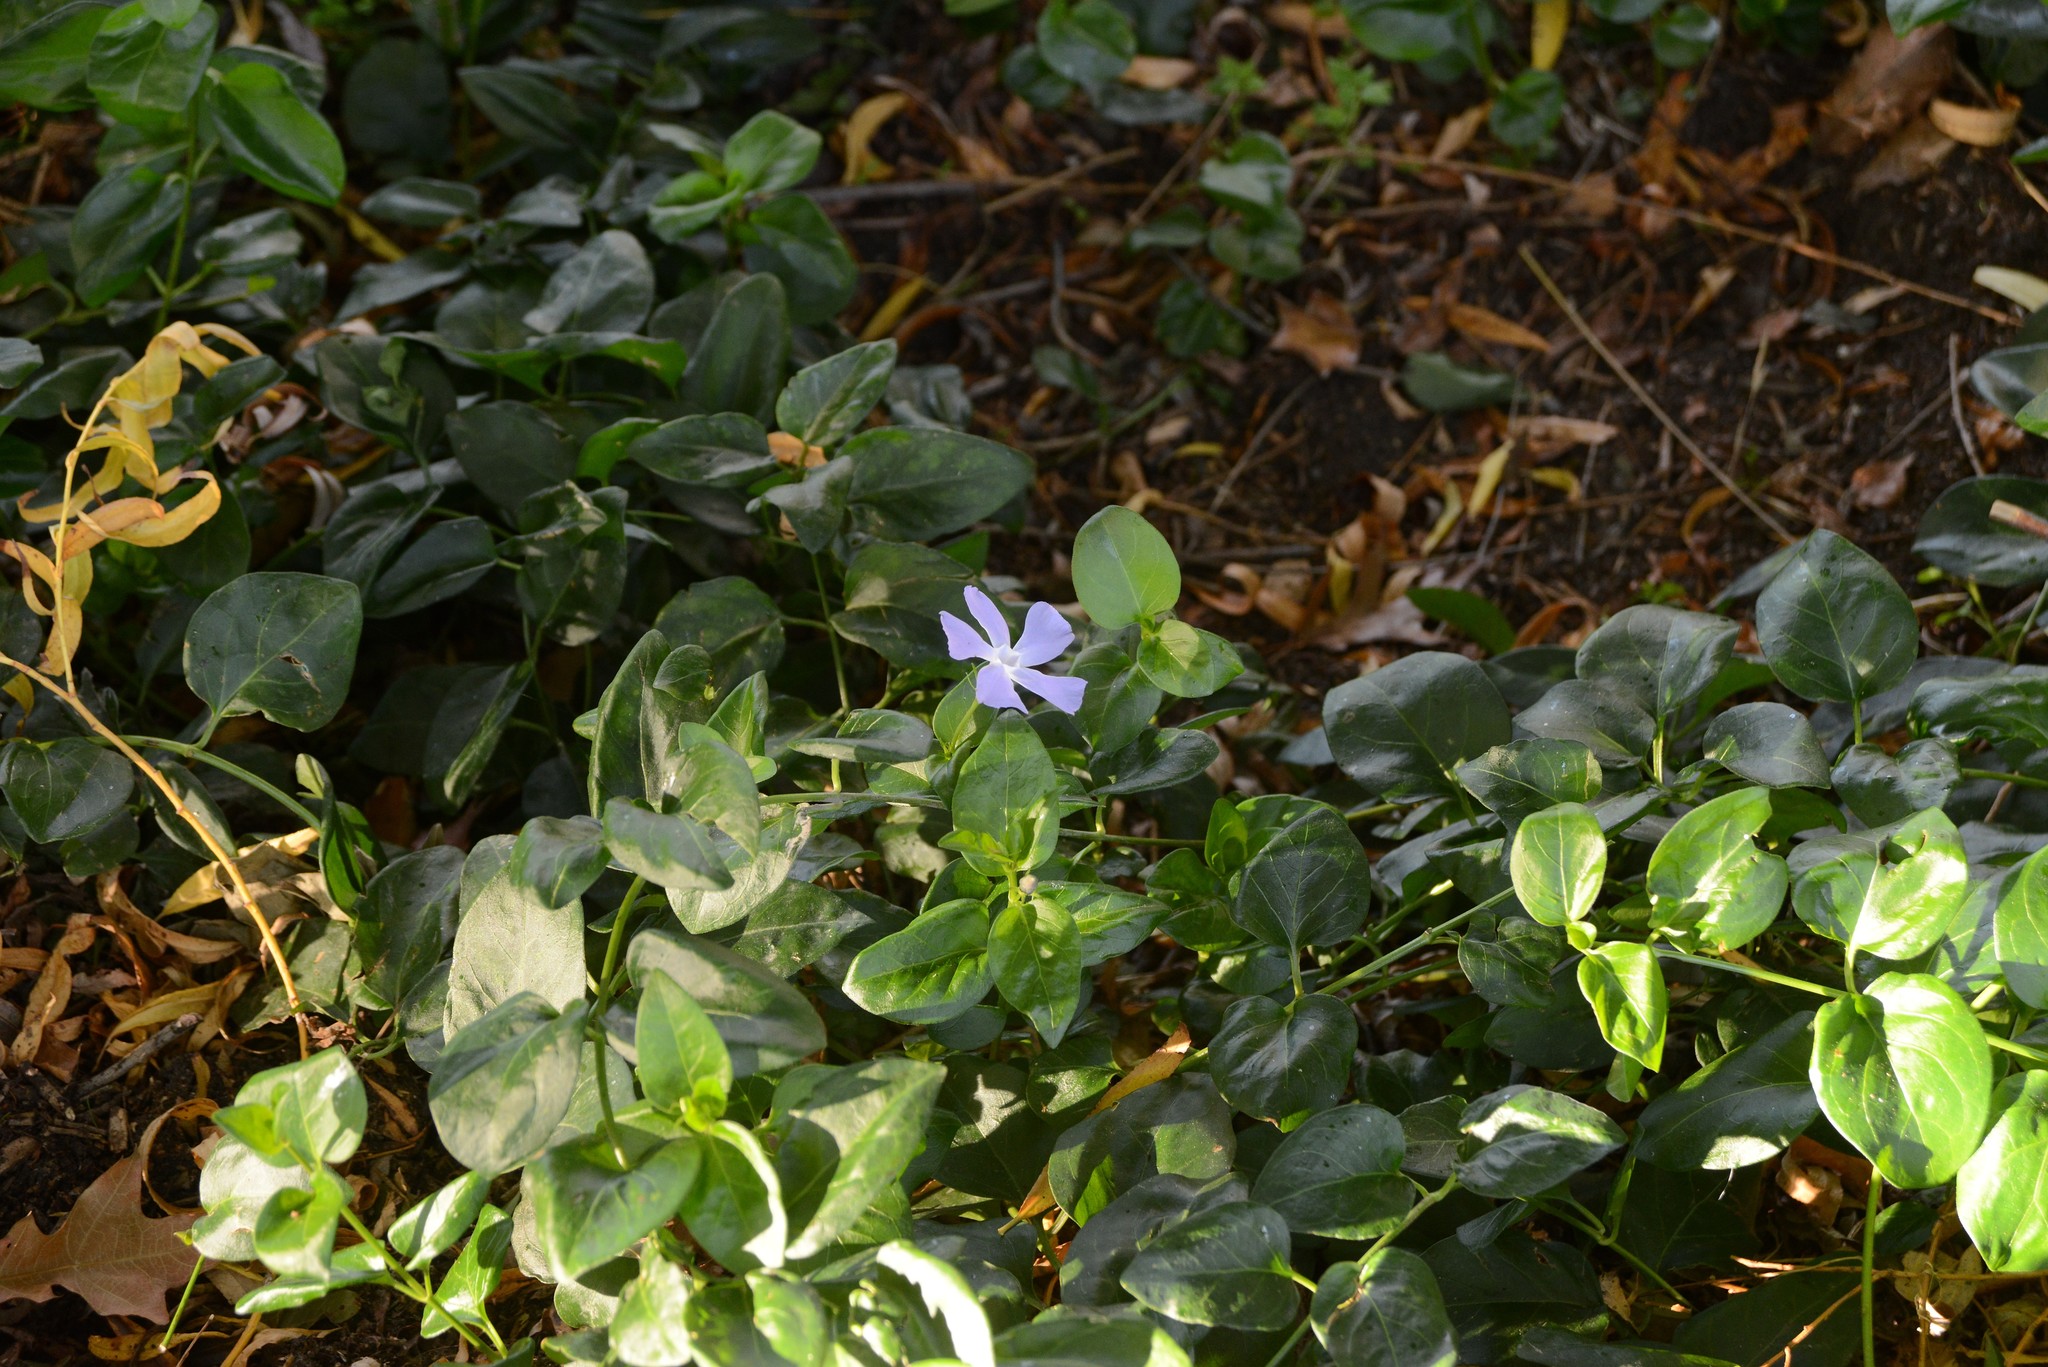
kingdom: Plantae
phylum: Tracheophyta
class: Magnoliopsida
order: Gentianales
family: Apocynaceae
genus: Vinca
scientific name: Vinca major
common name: Greater periwinkle
